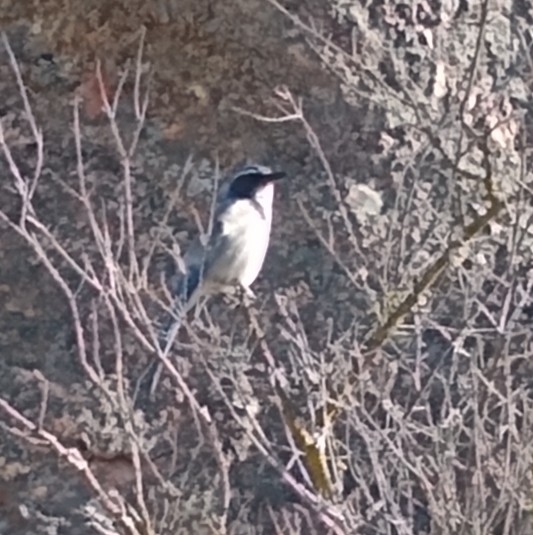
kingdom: Animalia
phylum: Chordata
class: Aves
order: Passeriformes
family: Corvidae
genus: Aphelocoma
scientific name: Aphelocoma californica
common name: California scrub-jay
